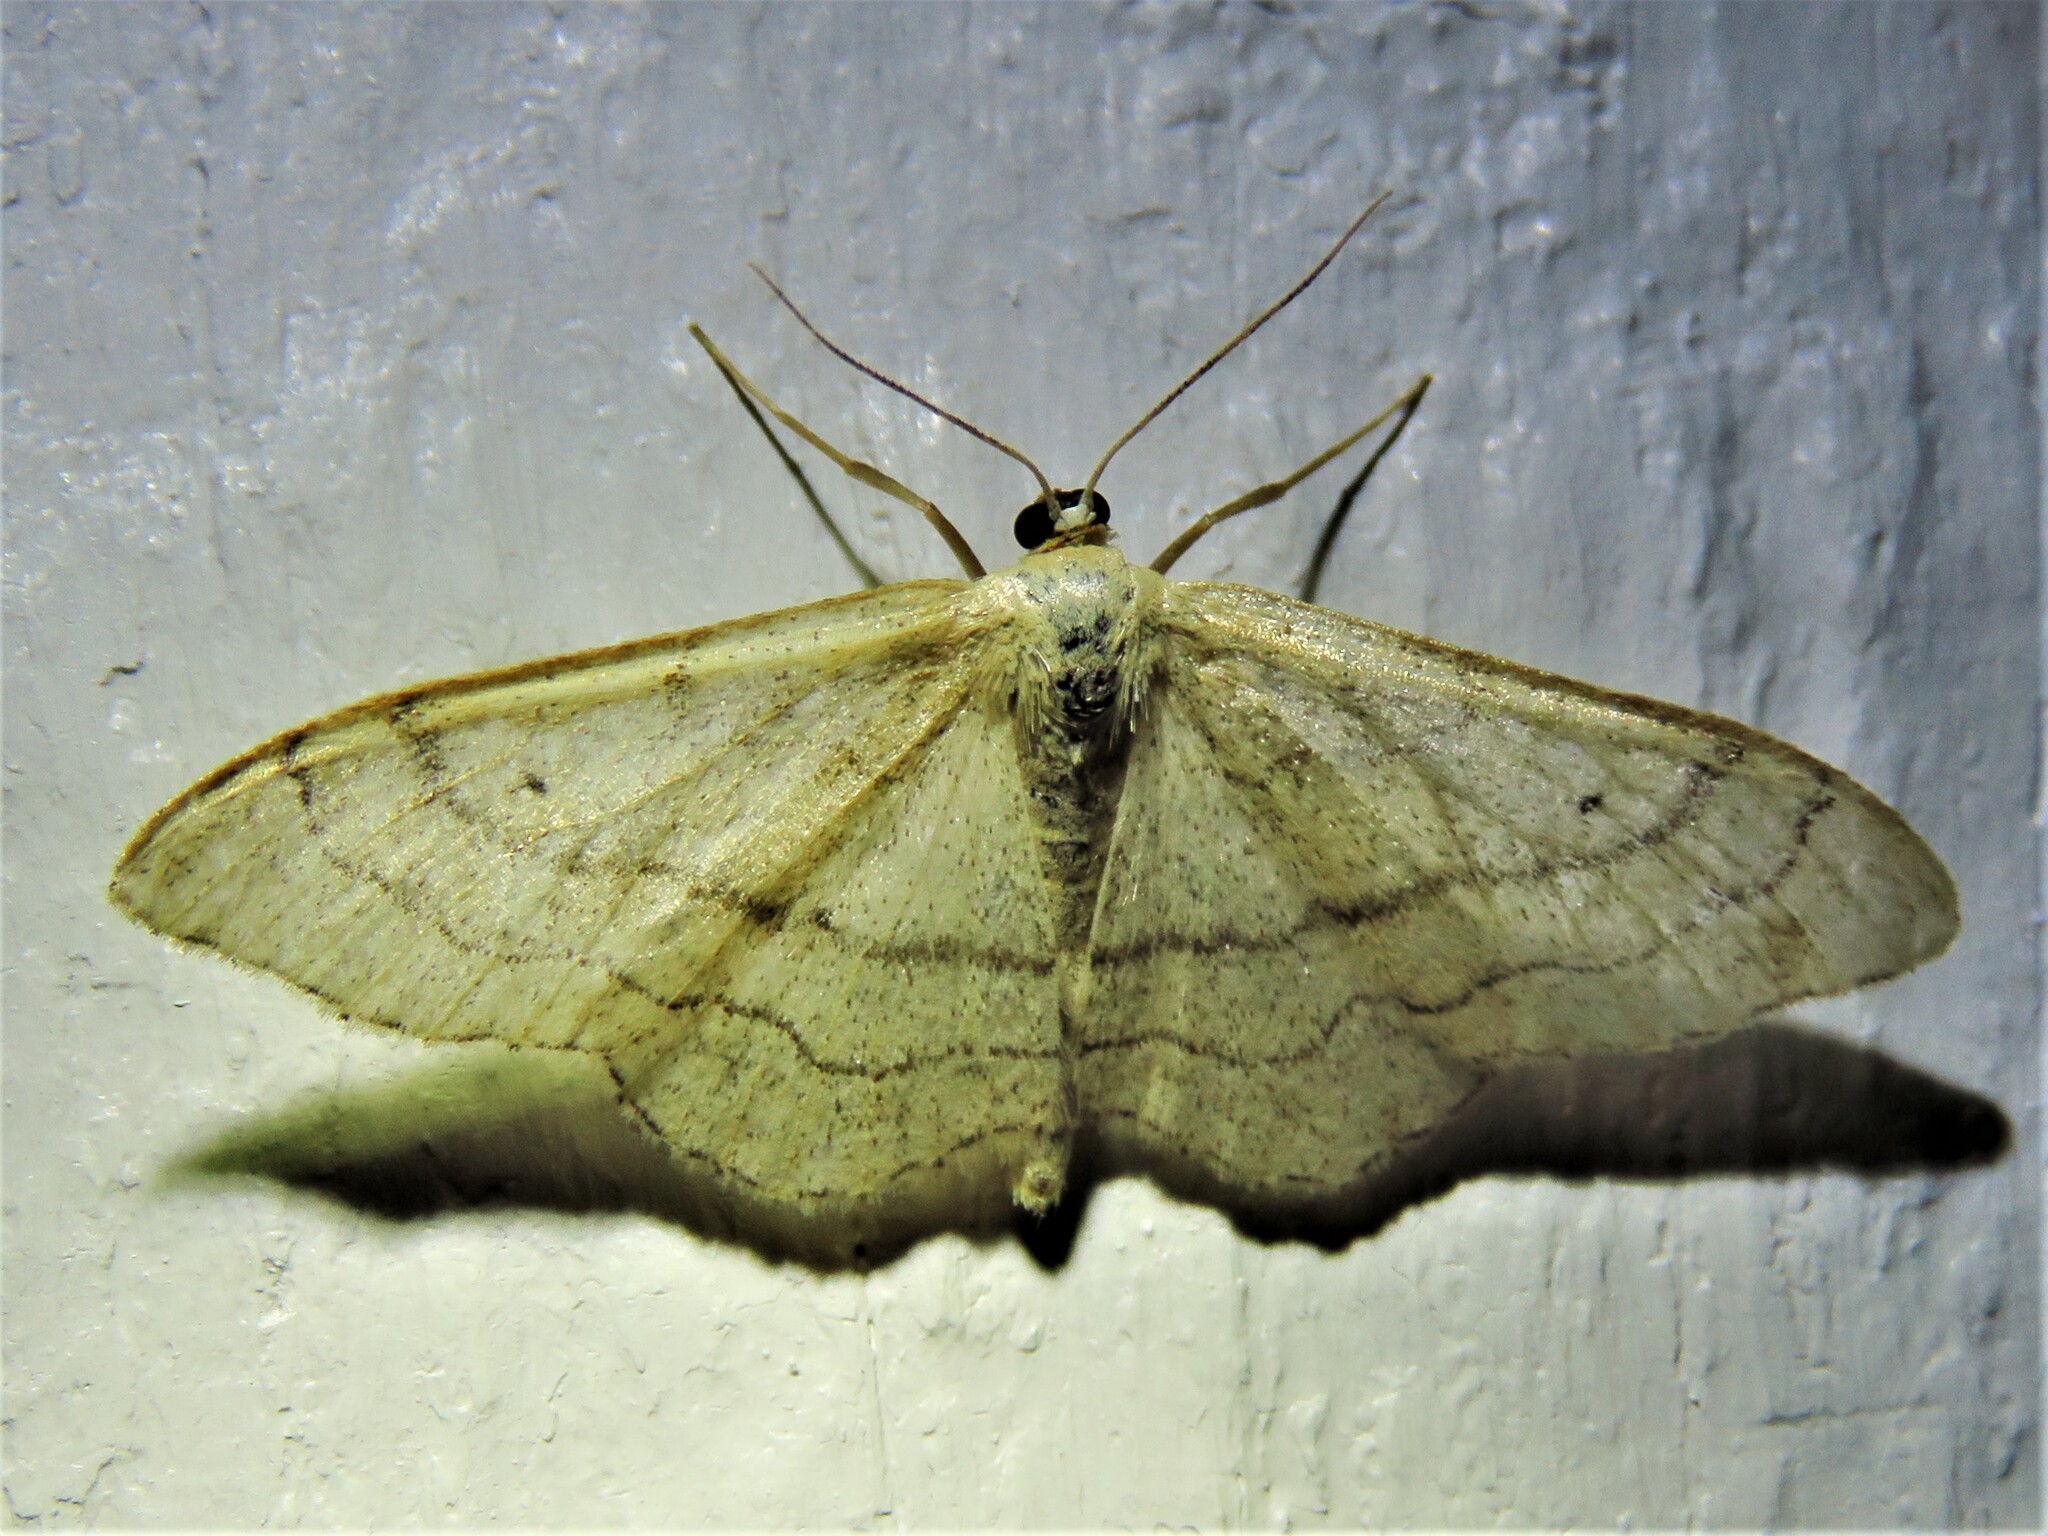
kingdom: Animalia
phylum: Arthropoda
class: Insecta
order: Lepidoptera
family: Geometridae
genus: Idaea
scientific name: Idaea aversata
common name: Riband wave
